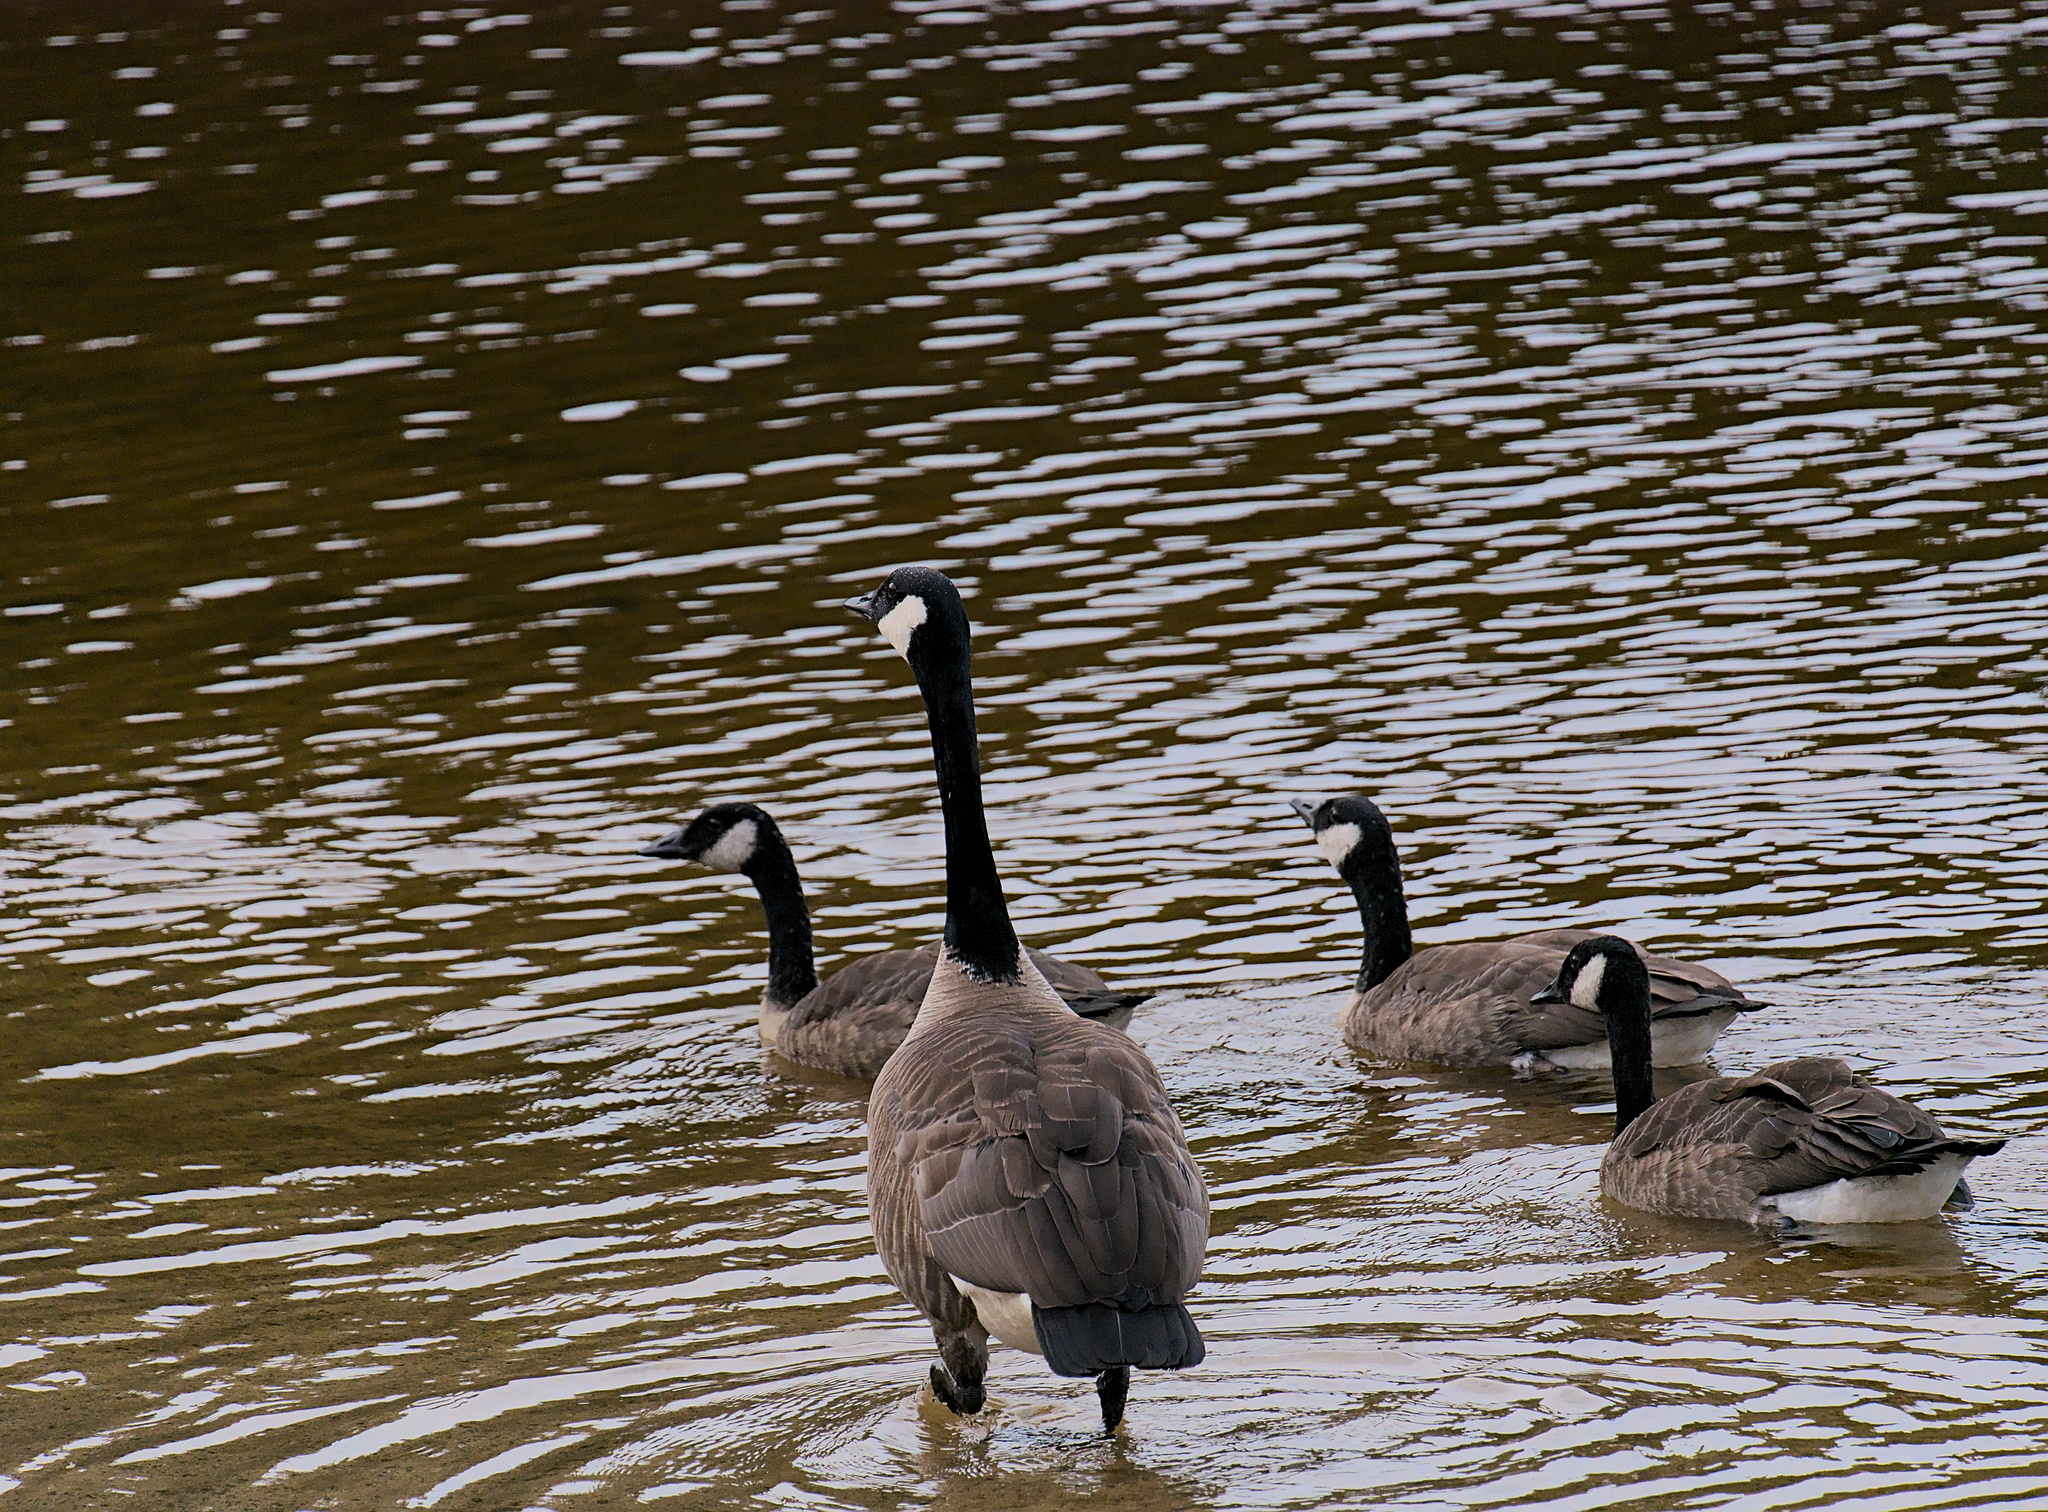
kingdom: Animalia
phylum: Chordata
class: Aves
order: Anseriformes
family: Anatidae
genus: Branta
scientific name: Branta canadensis
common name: Canada goose
